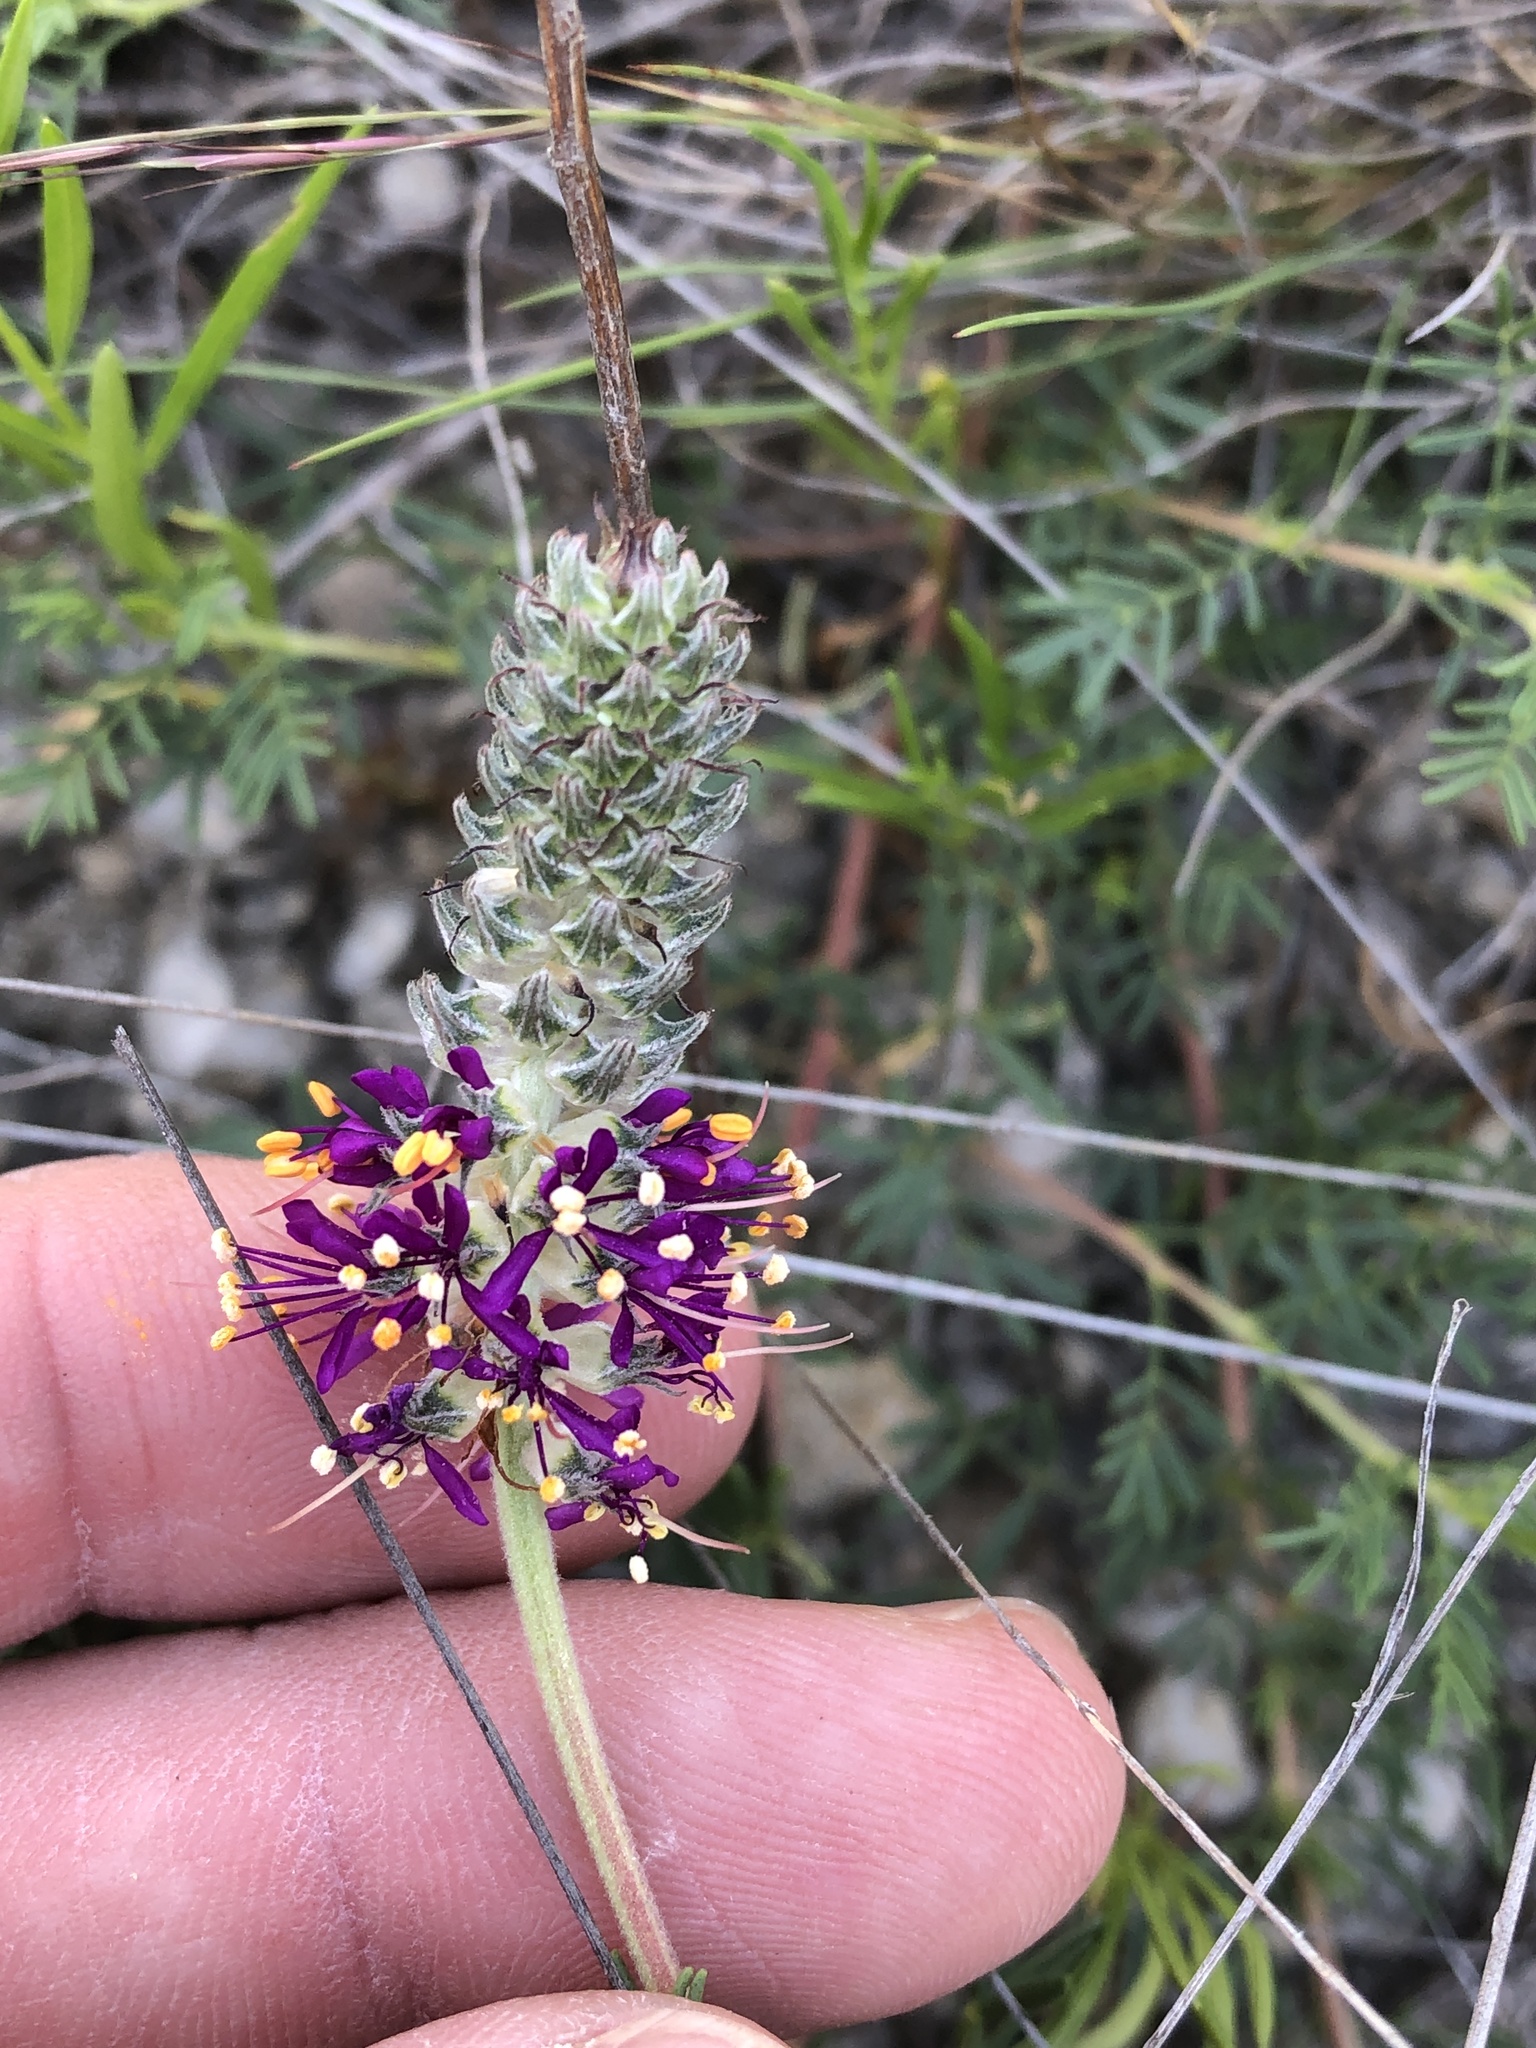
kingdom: Plantae
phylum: Tracheophyta
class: Magnoliopsida
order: Fabales
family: Fabaceae
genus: Dalea
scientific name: Dalea reverchonii
